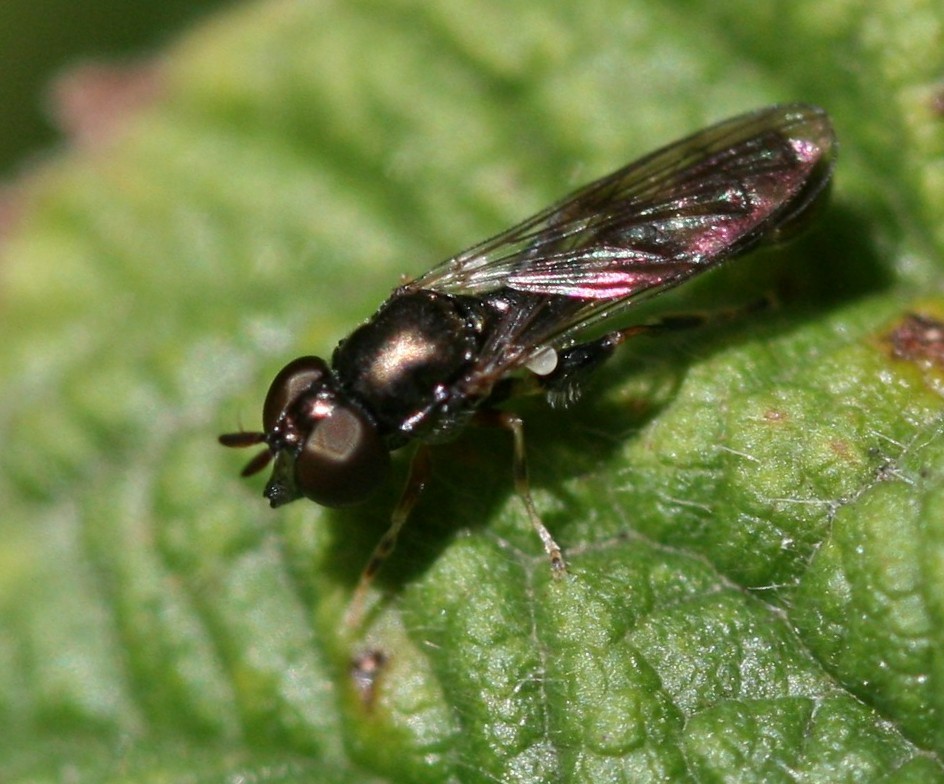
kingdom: Animalia
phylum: Arthropoda
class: Insecta
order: Diptera
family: Syrphidae
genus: Neoascia
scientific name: Neoascia
